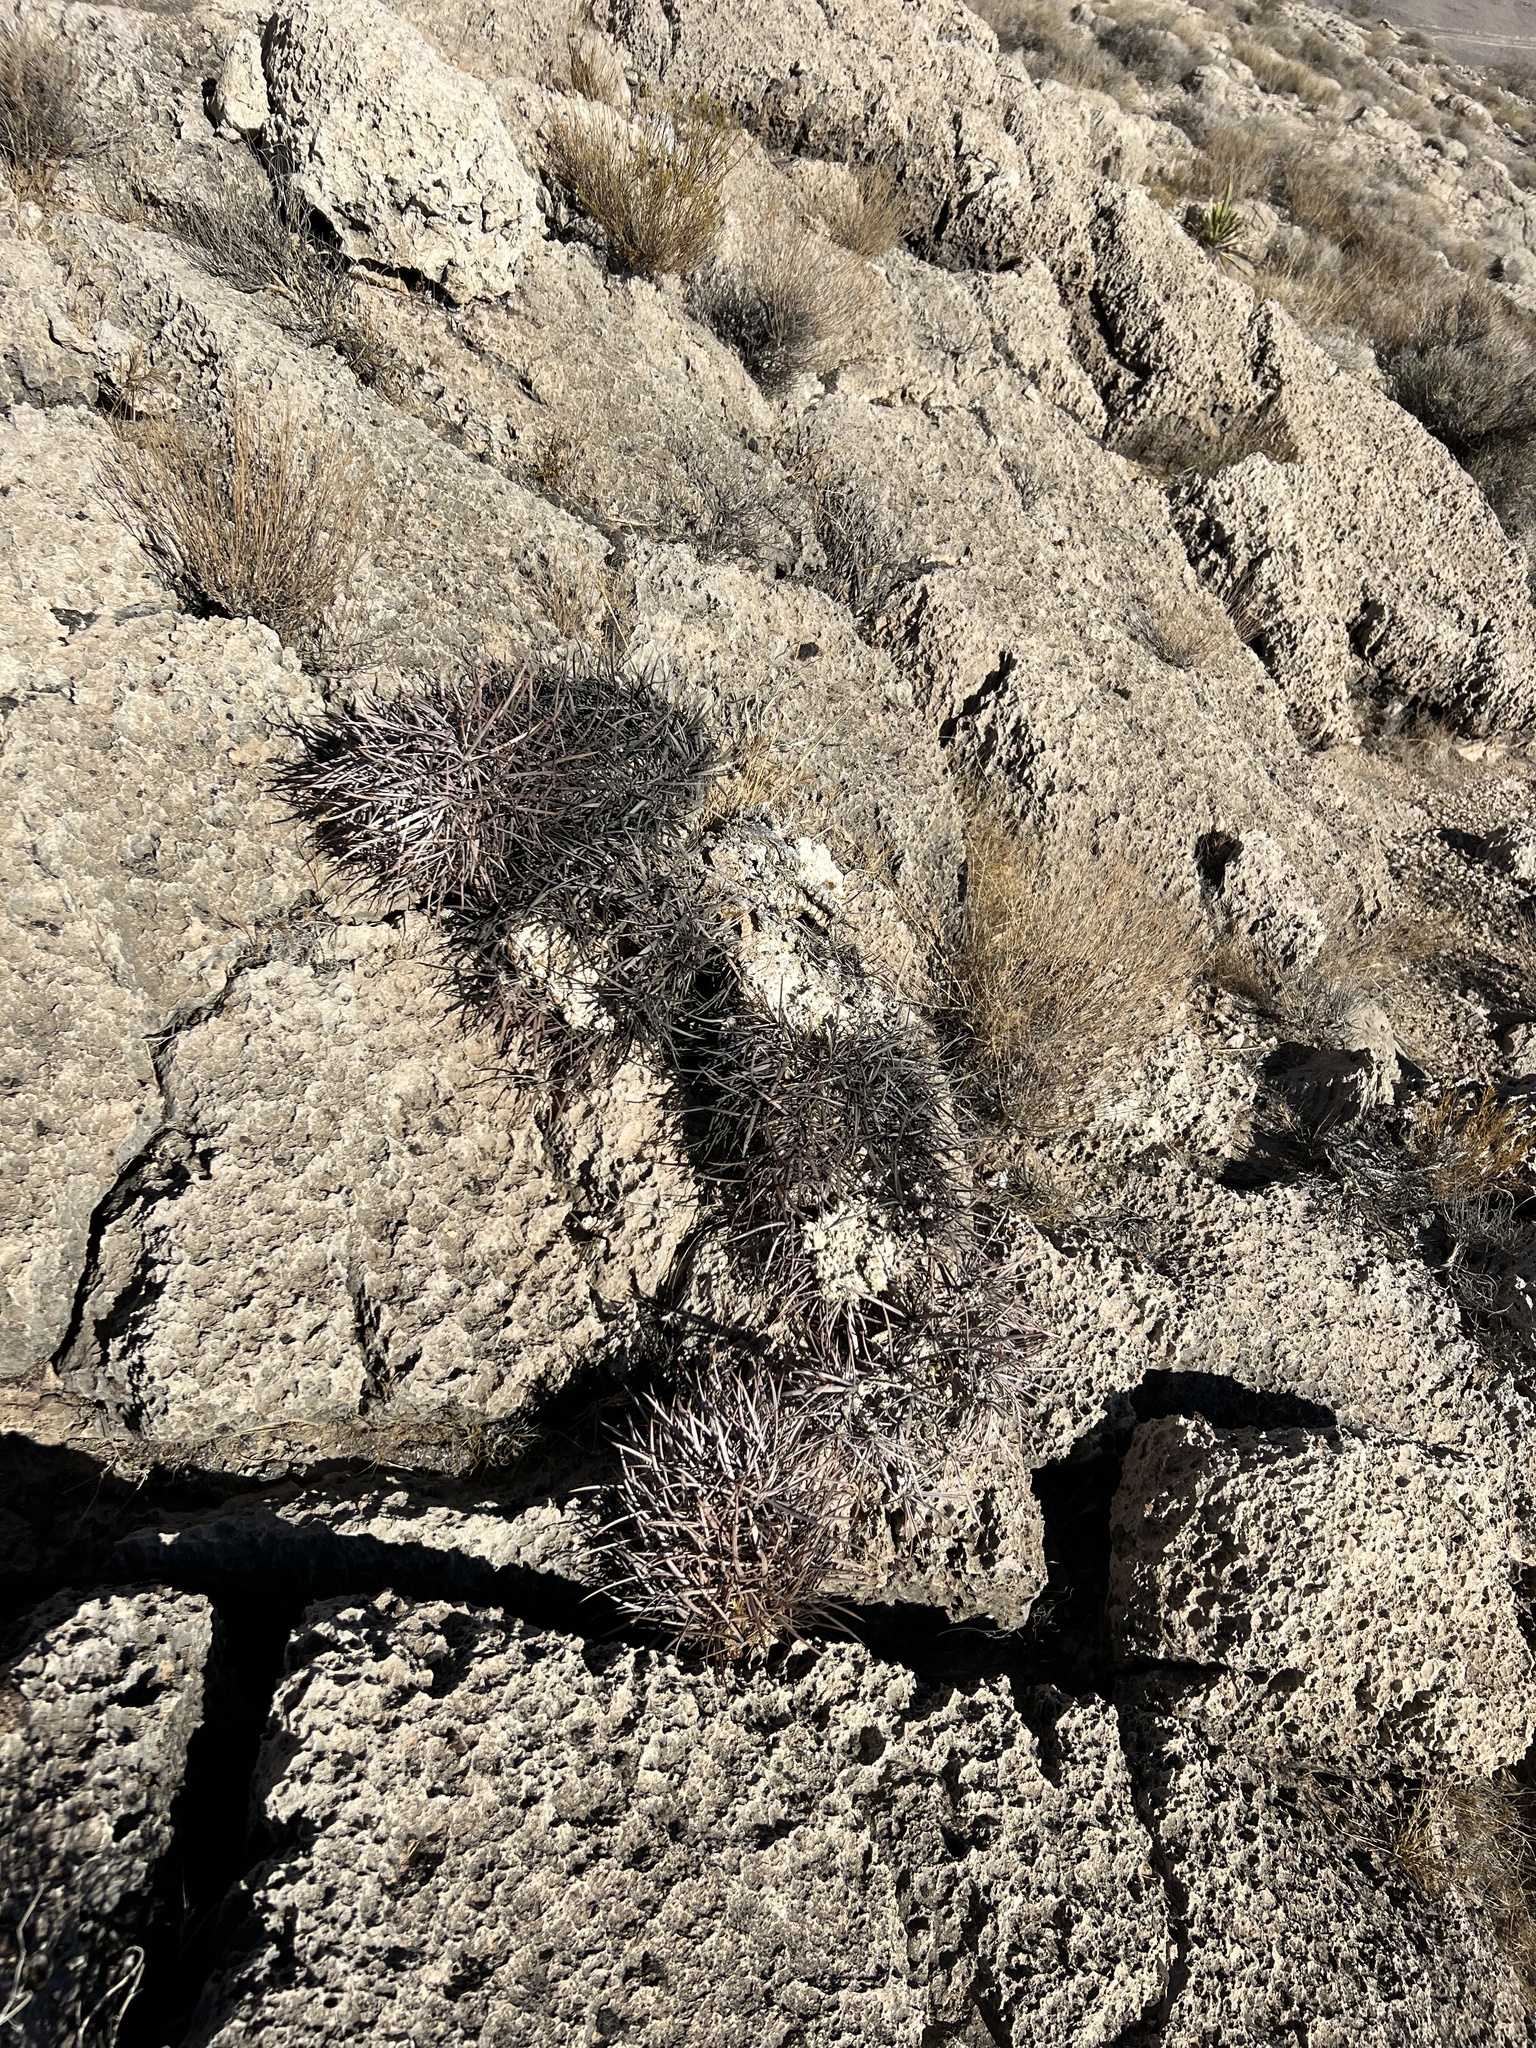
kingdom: Plantae
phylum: Tracheophyta
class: Magnoliopsida
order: Caryophyllales
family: Cactaceae
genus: Echinocactus
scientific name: Echinocactus polycephalus
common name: Cottontop cactus
